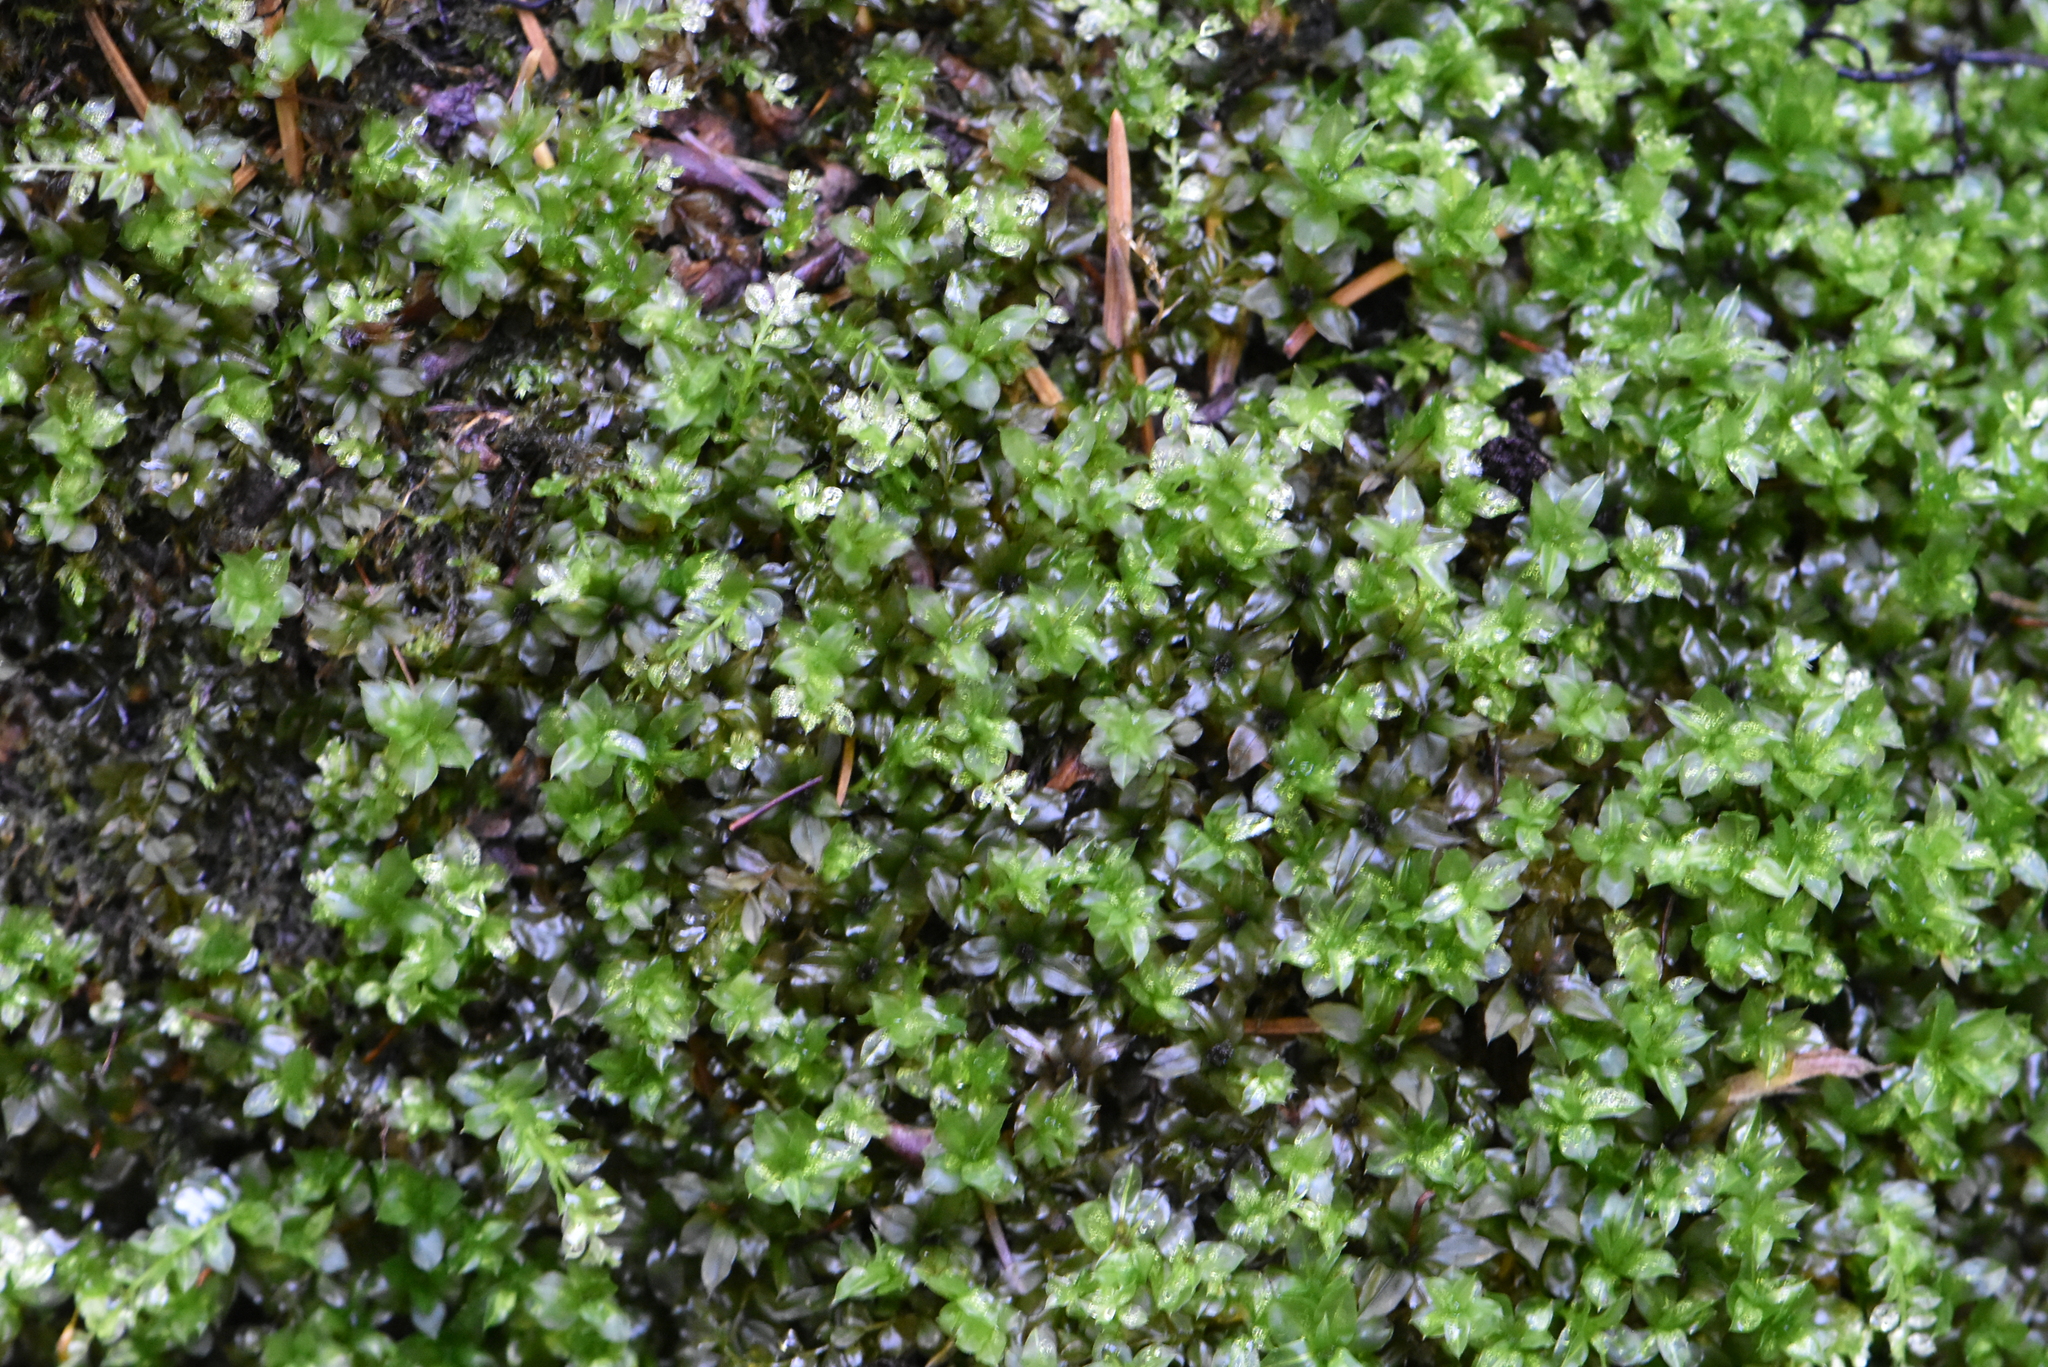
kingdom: Plantae
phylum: Bryophyta
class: Bryopsida
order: Bryales
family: Mniaceae
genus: Plagiomnium
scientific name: Plagiomnium
